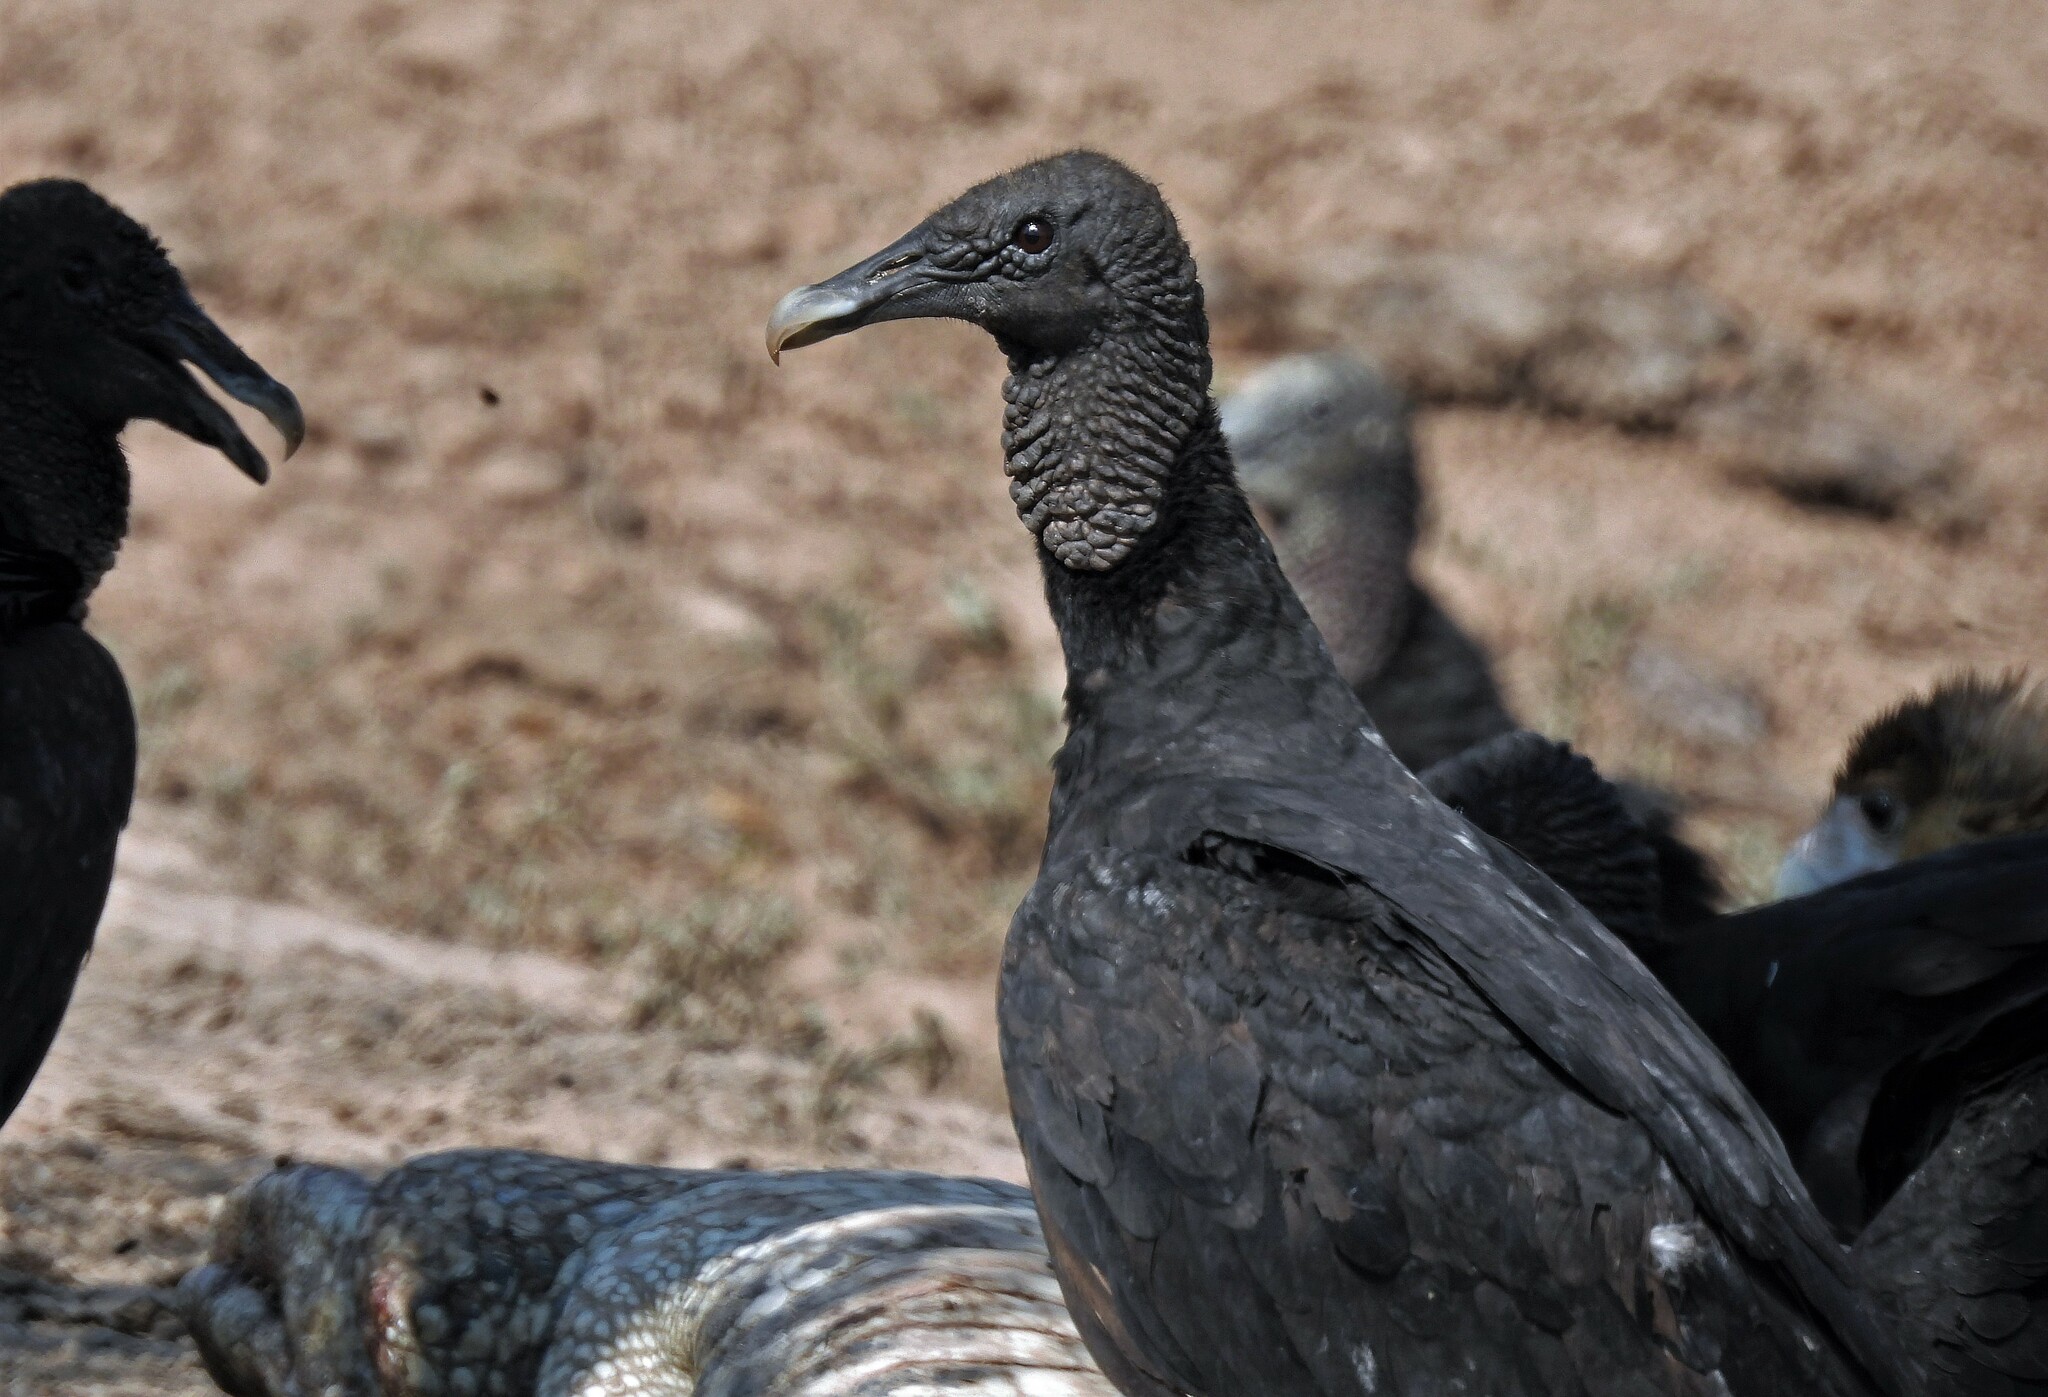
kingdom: Animalia
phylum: Chordata
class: Aves
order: Accipitriformes
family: Cathartidae
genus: Coragyps
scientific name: Coragyps atratus
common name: Black vulture
